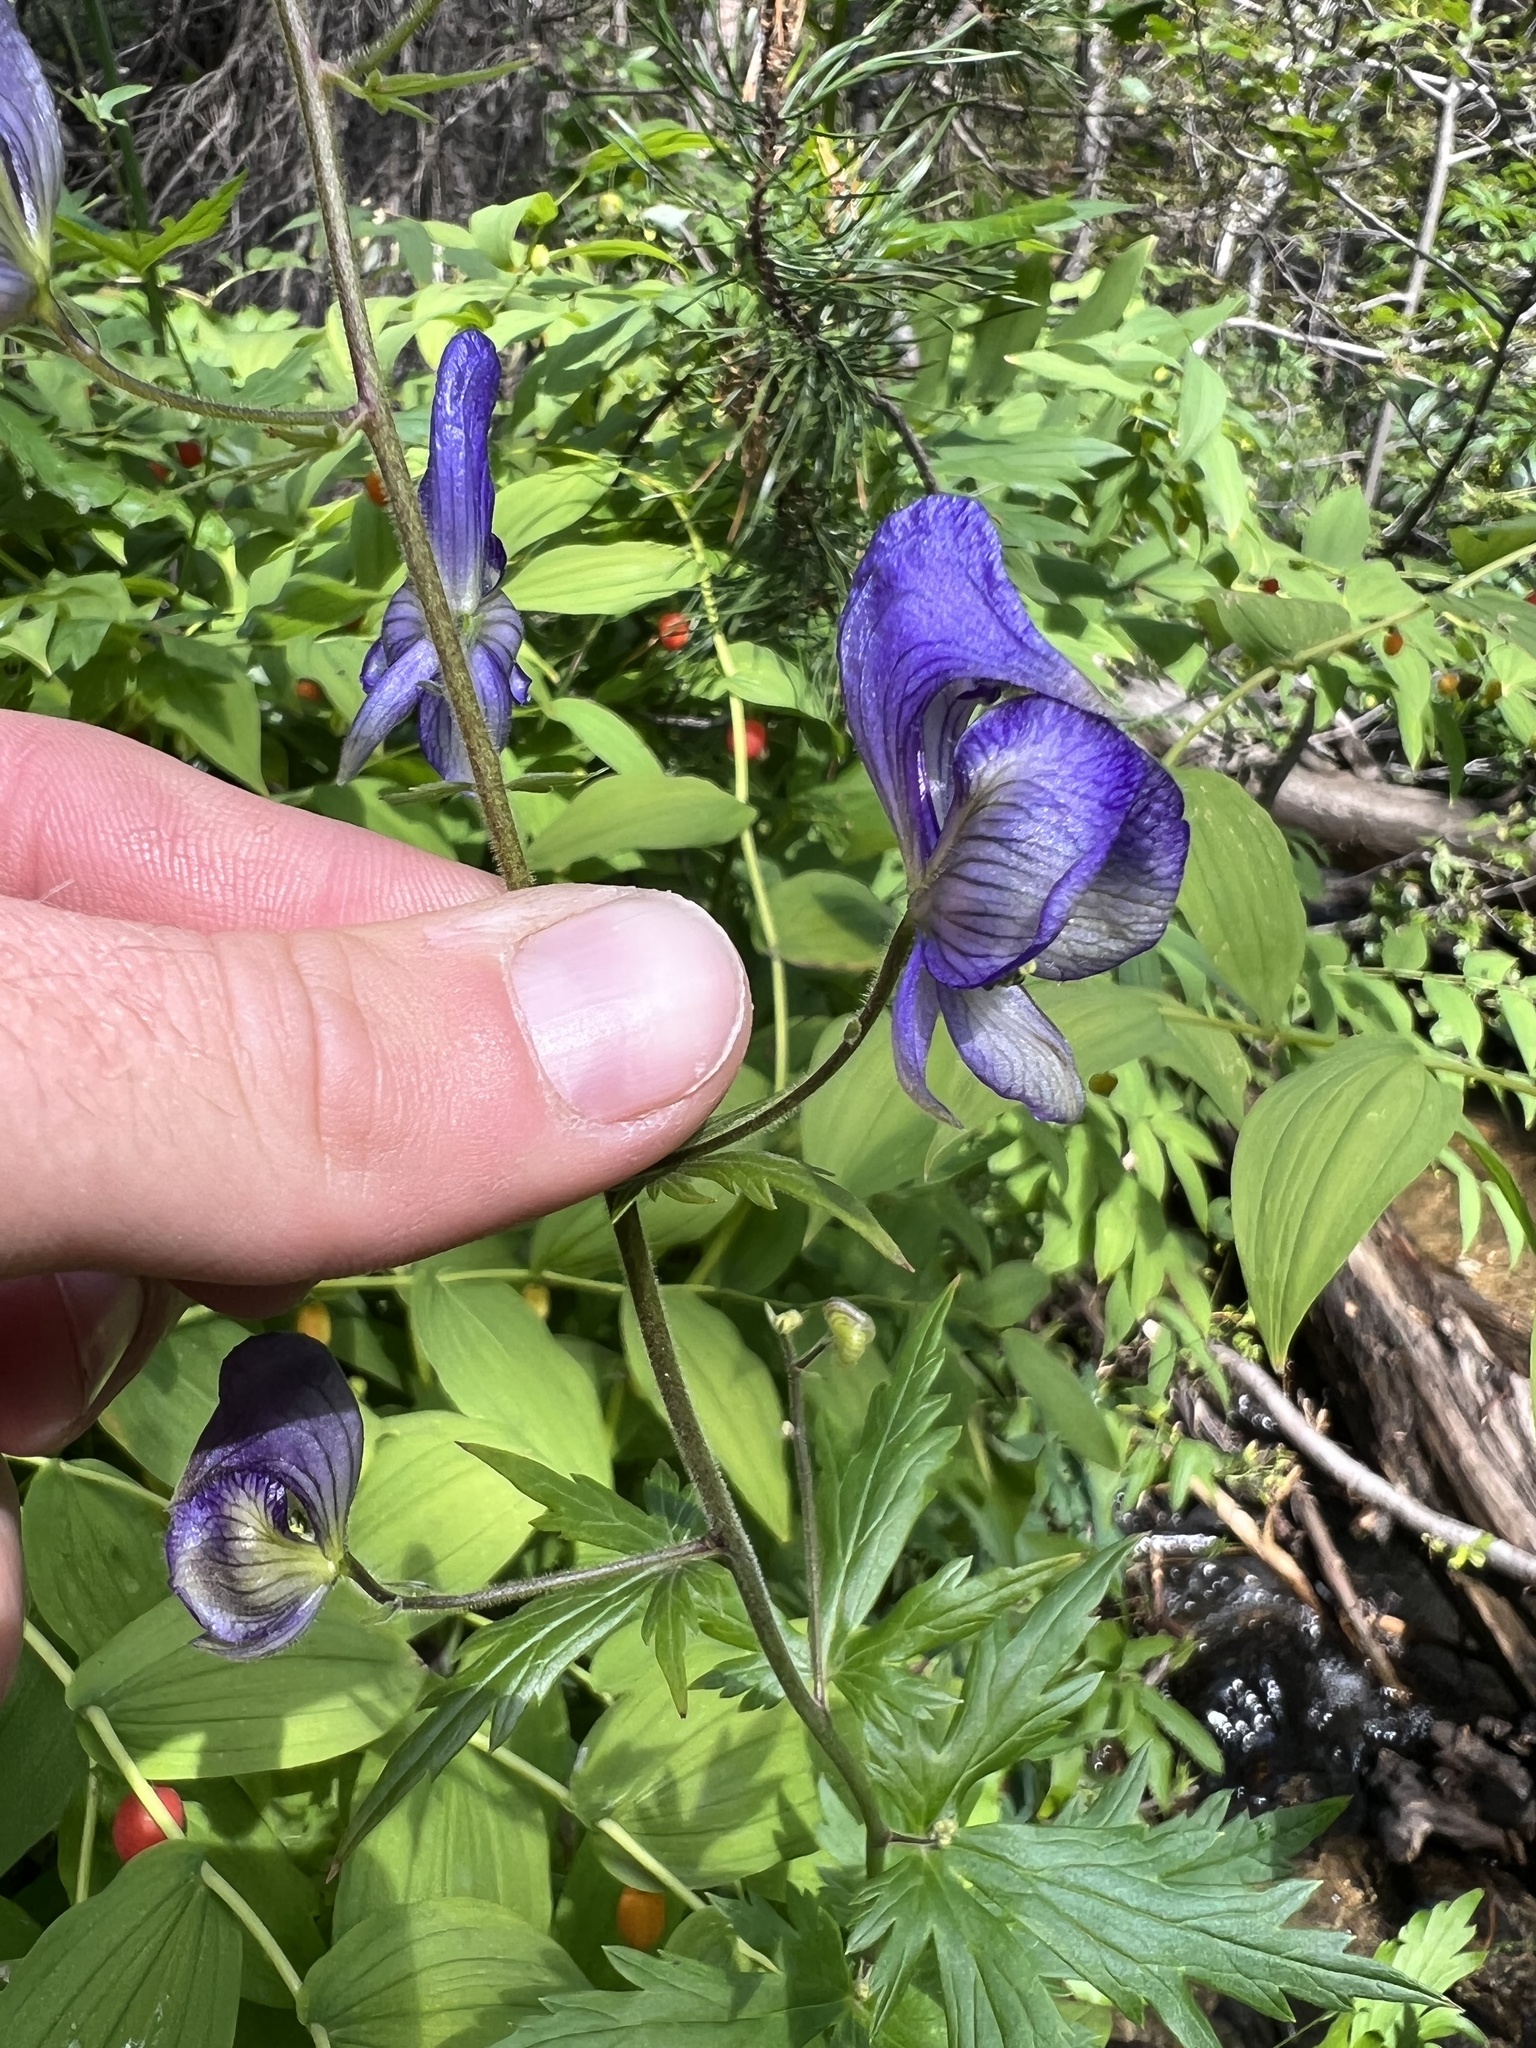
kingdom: Plantae
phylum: Tracheophyta
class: Magnoliopsida
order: Ranunculales
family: Ranunculaceae
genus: Aconitum
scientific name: Aconitum columbianum
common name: Columbia aconite
